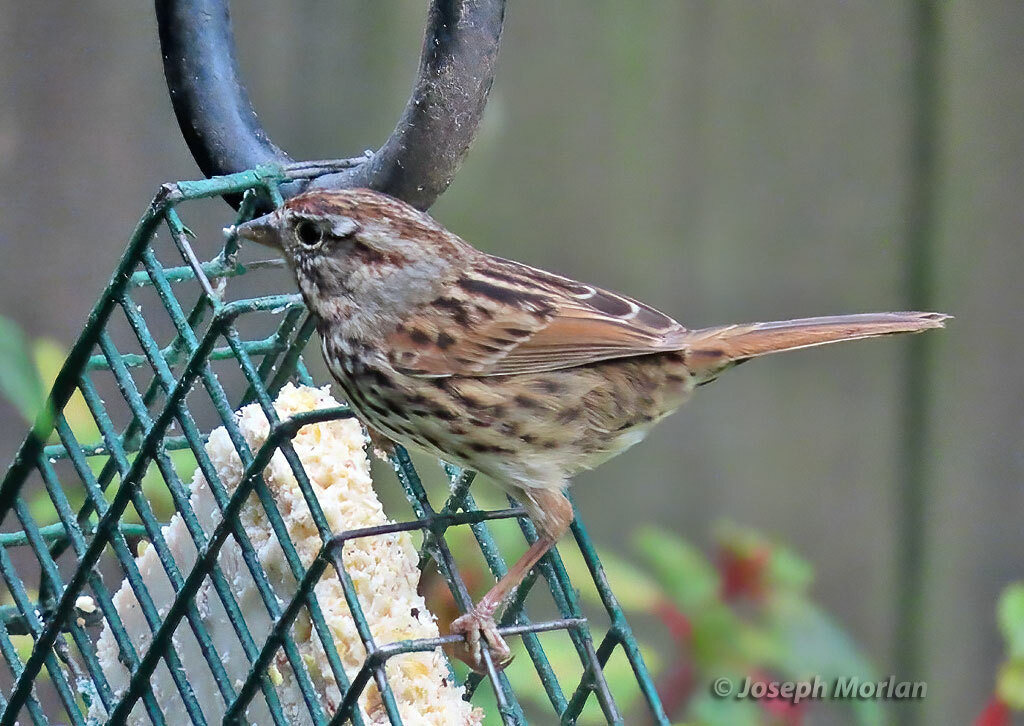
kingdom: Animalia
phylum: Chordata
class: Aves
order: Passeriformes
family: Passerellidae
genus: Melospiza
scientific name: Melospiza melodia
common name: Song sparrow
